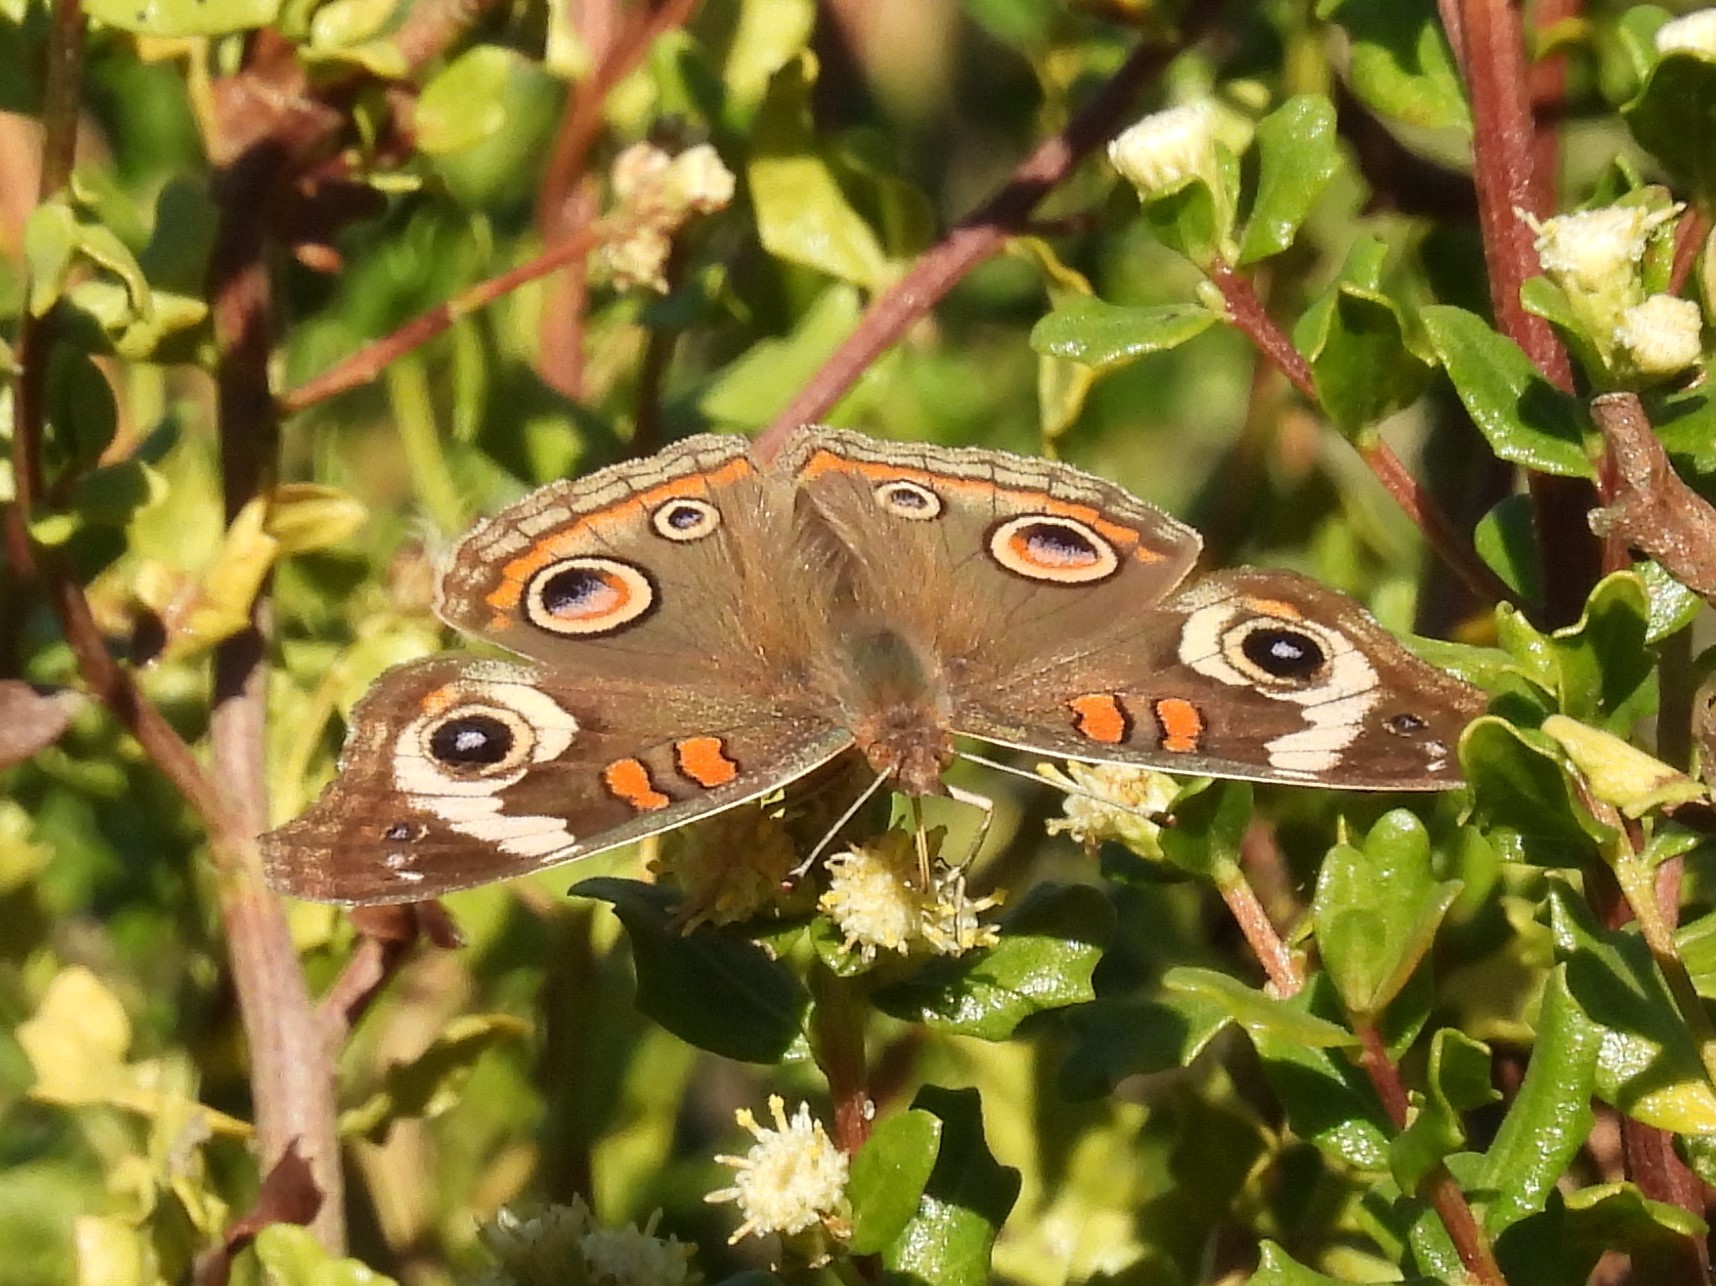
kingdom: Animalia
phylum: Arthropoda
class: Insecta
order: Lepidoptera
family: Nymphalidae
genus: Junonia
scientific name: Junonia grisea
